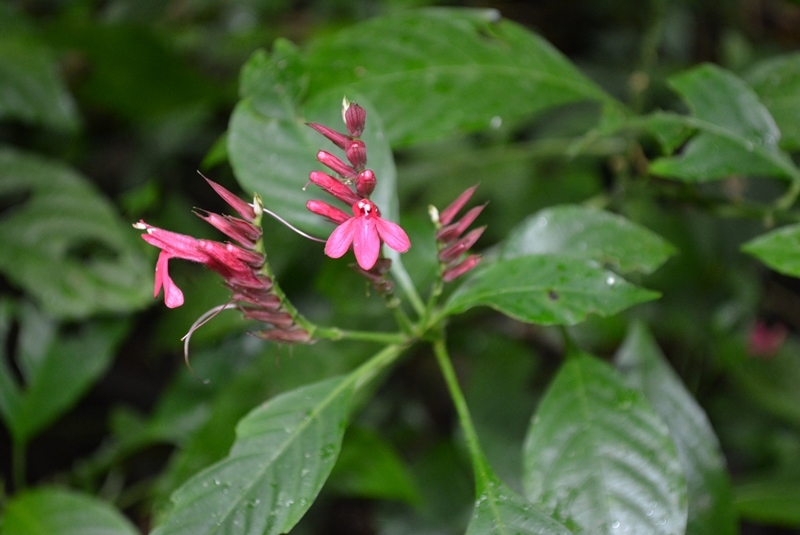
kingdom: Plantae
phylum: Tracheophyta
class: Magnoliopsida
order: Lamiales
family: Acanthaceae
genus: Lepidagathis
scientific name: Lepidagathis chiapensis
